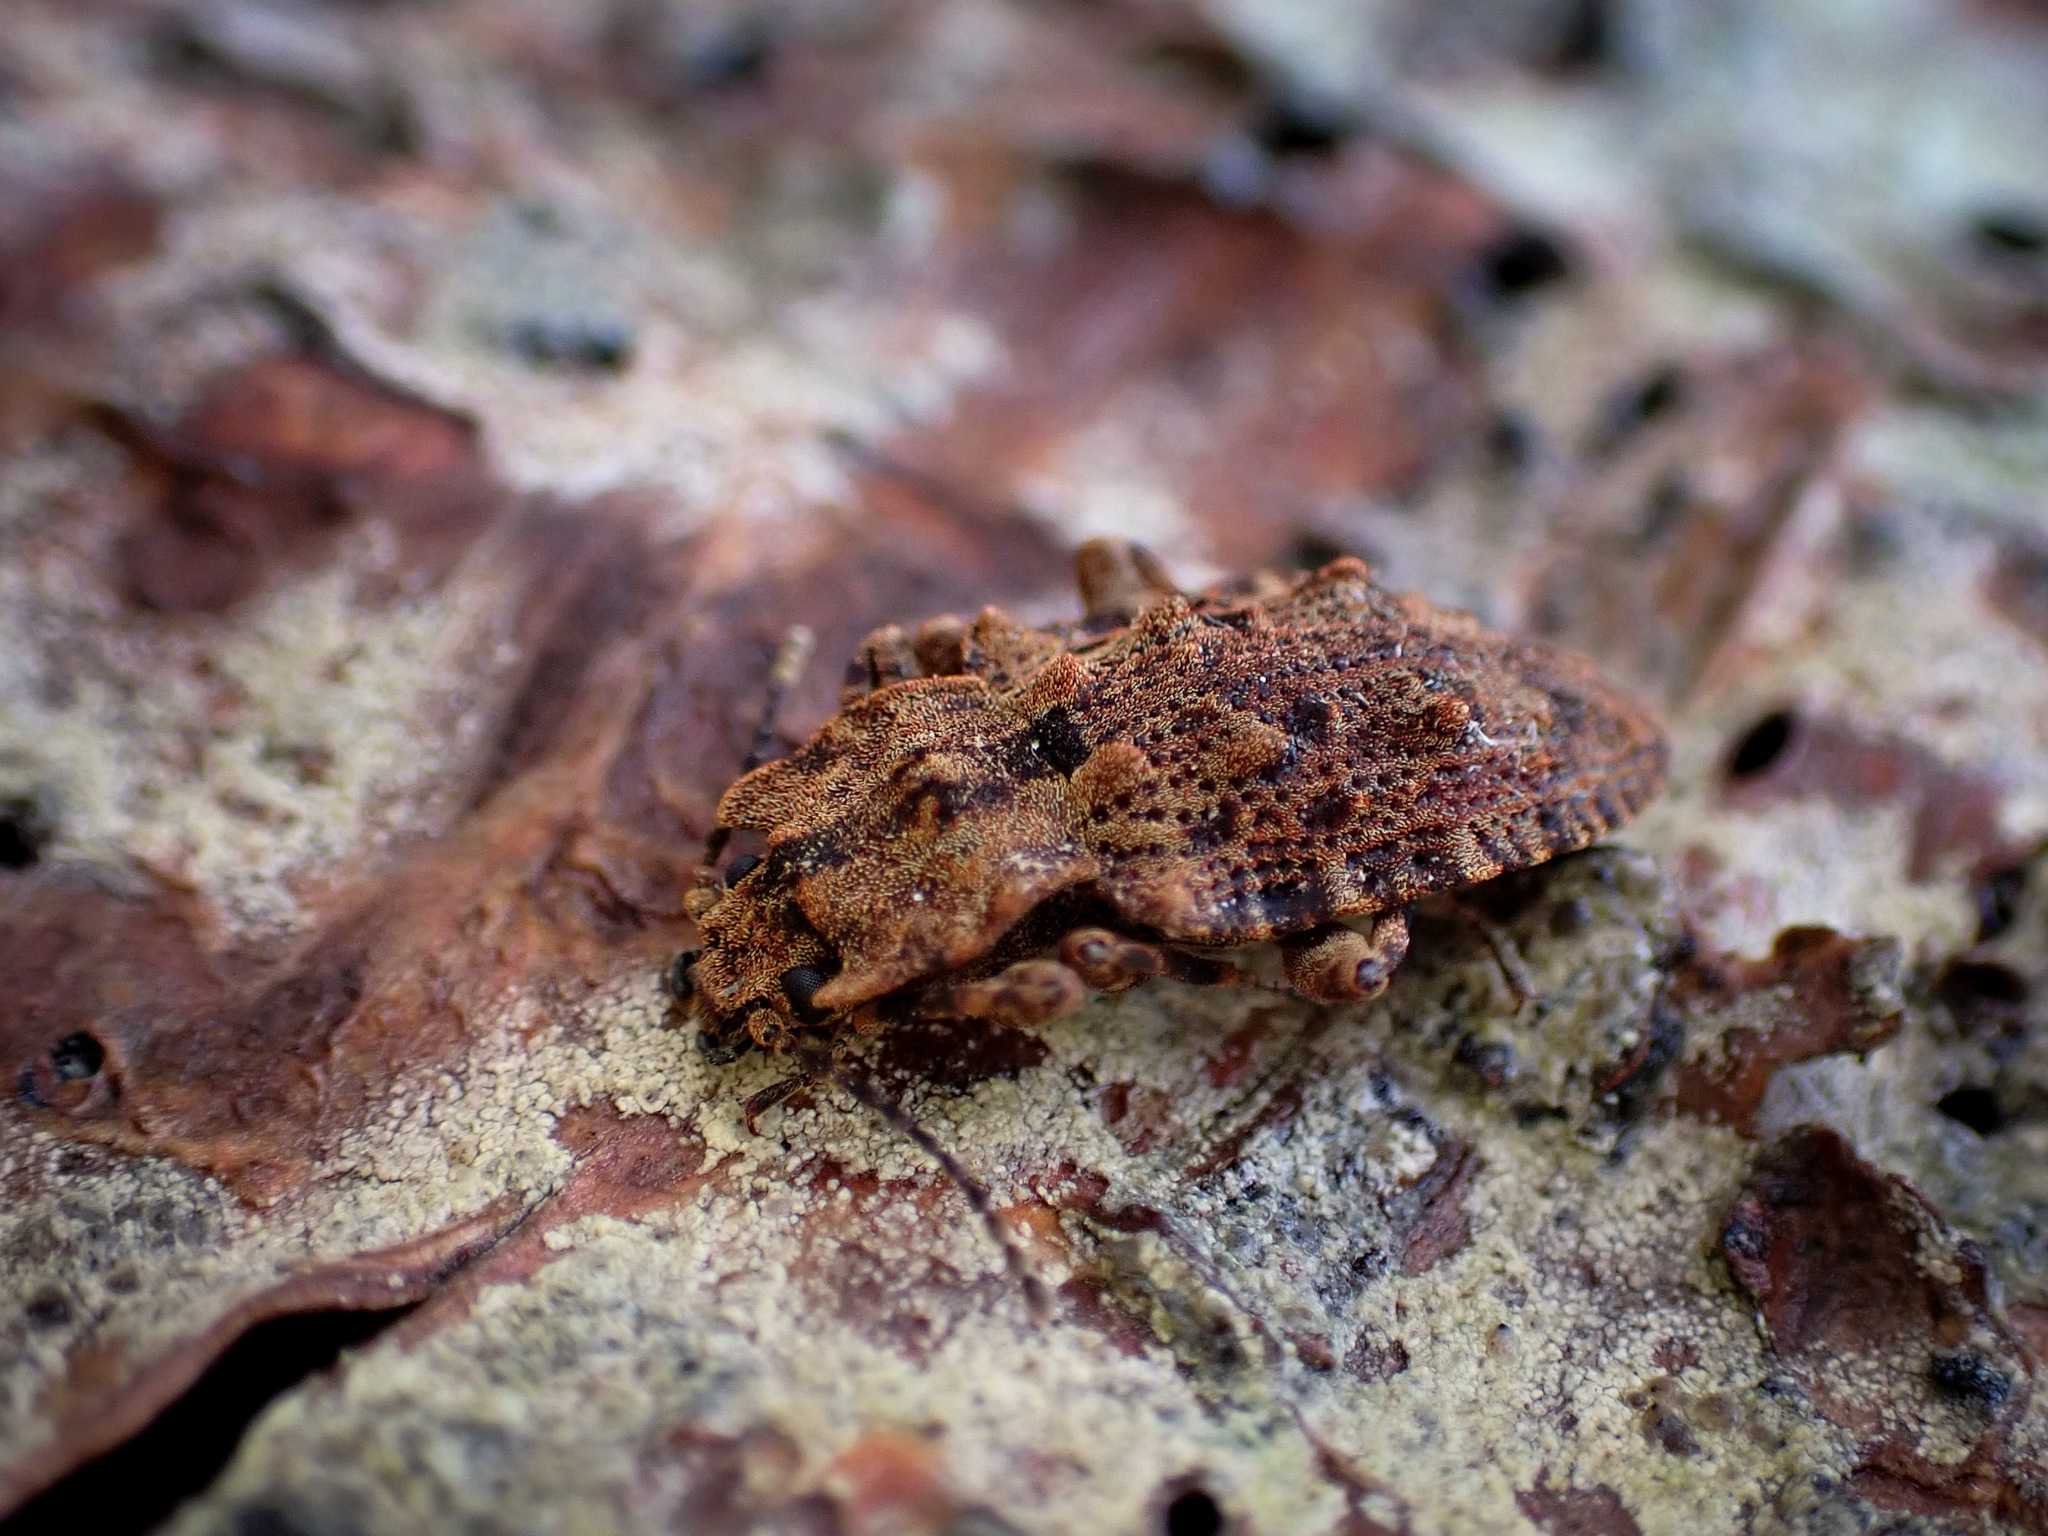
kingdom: Animalia
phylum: Arthropoda
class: Insecta
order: Coleoptera
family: Ulodidae
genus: Syrphetodes
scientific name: Syrphetodes obtusus
